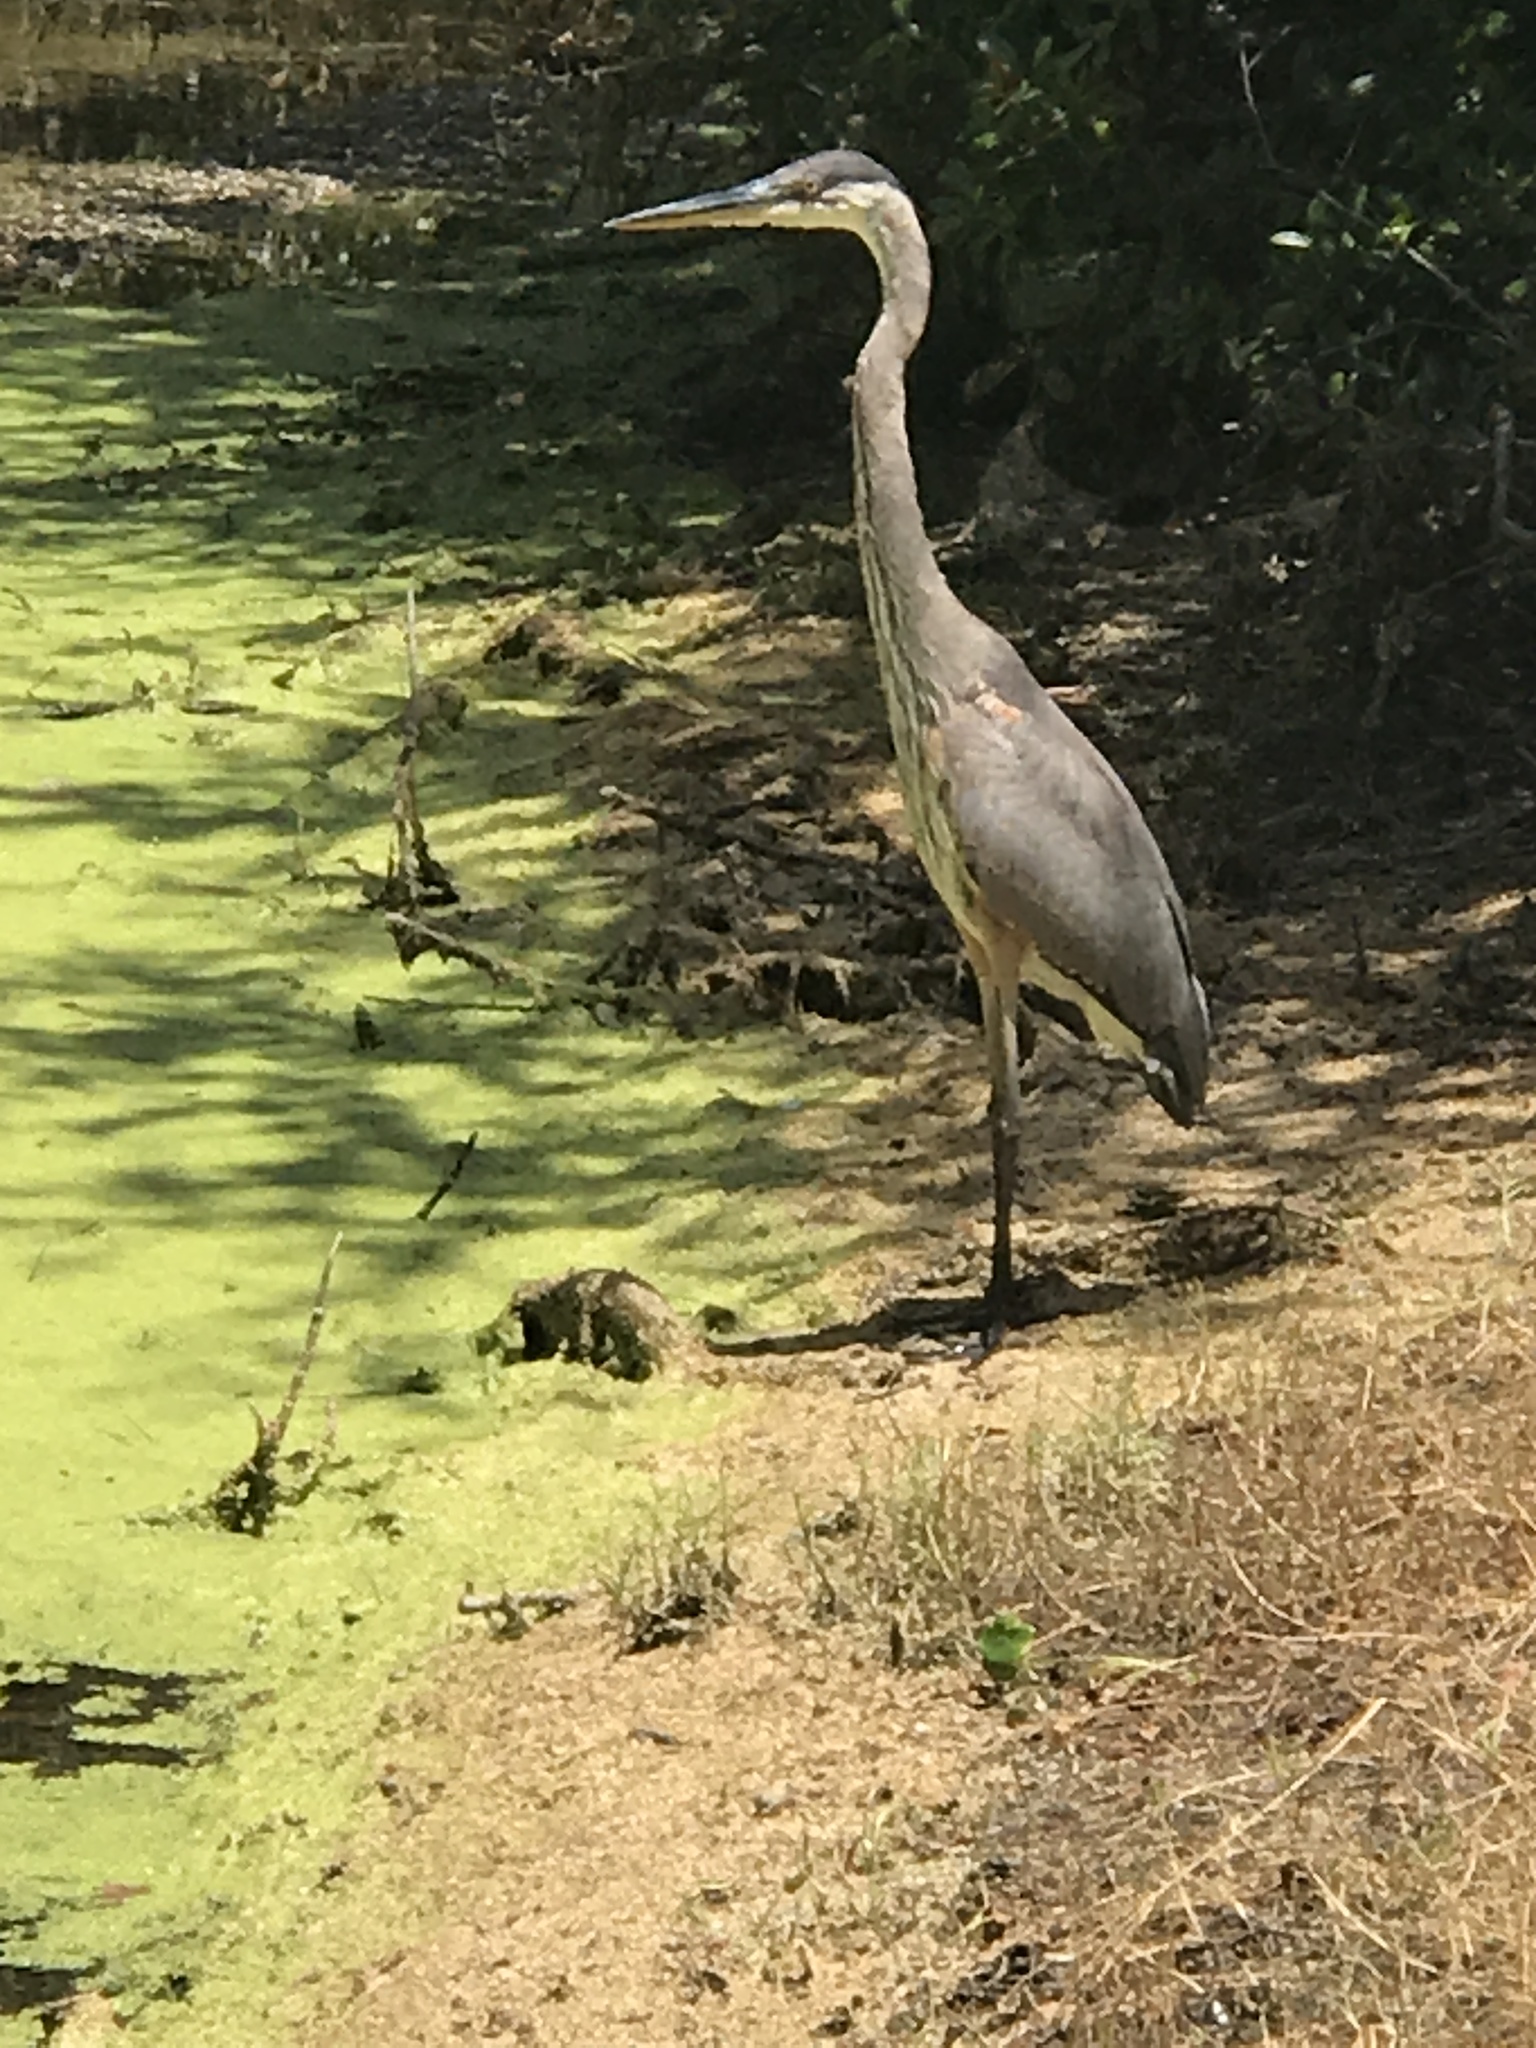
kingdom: Animalia
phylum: Chordata
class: Aves
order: Pelecaniformes
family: Ardeidae
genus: Ardea
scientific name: Ardea herodias
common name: Great blue heron
